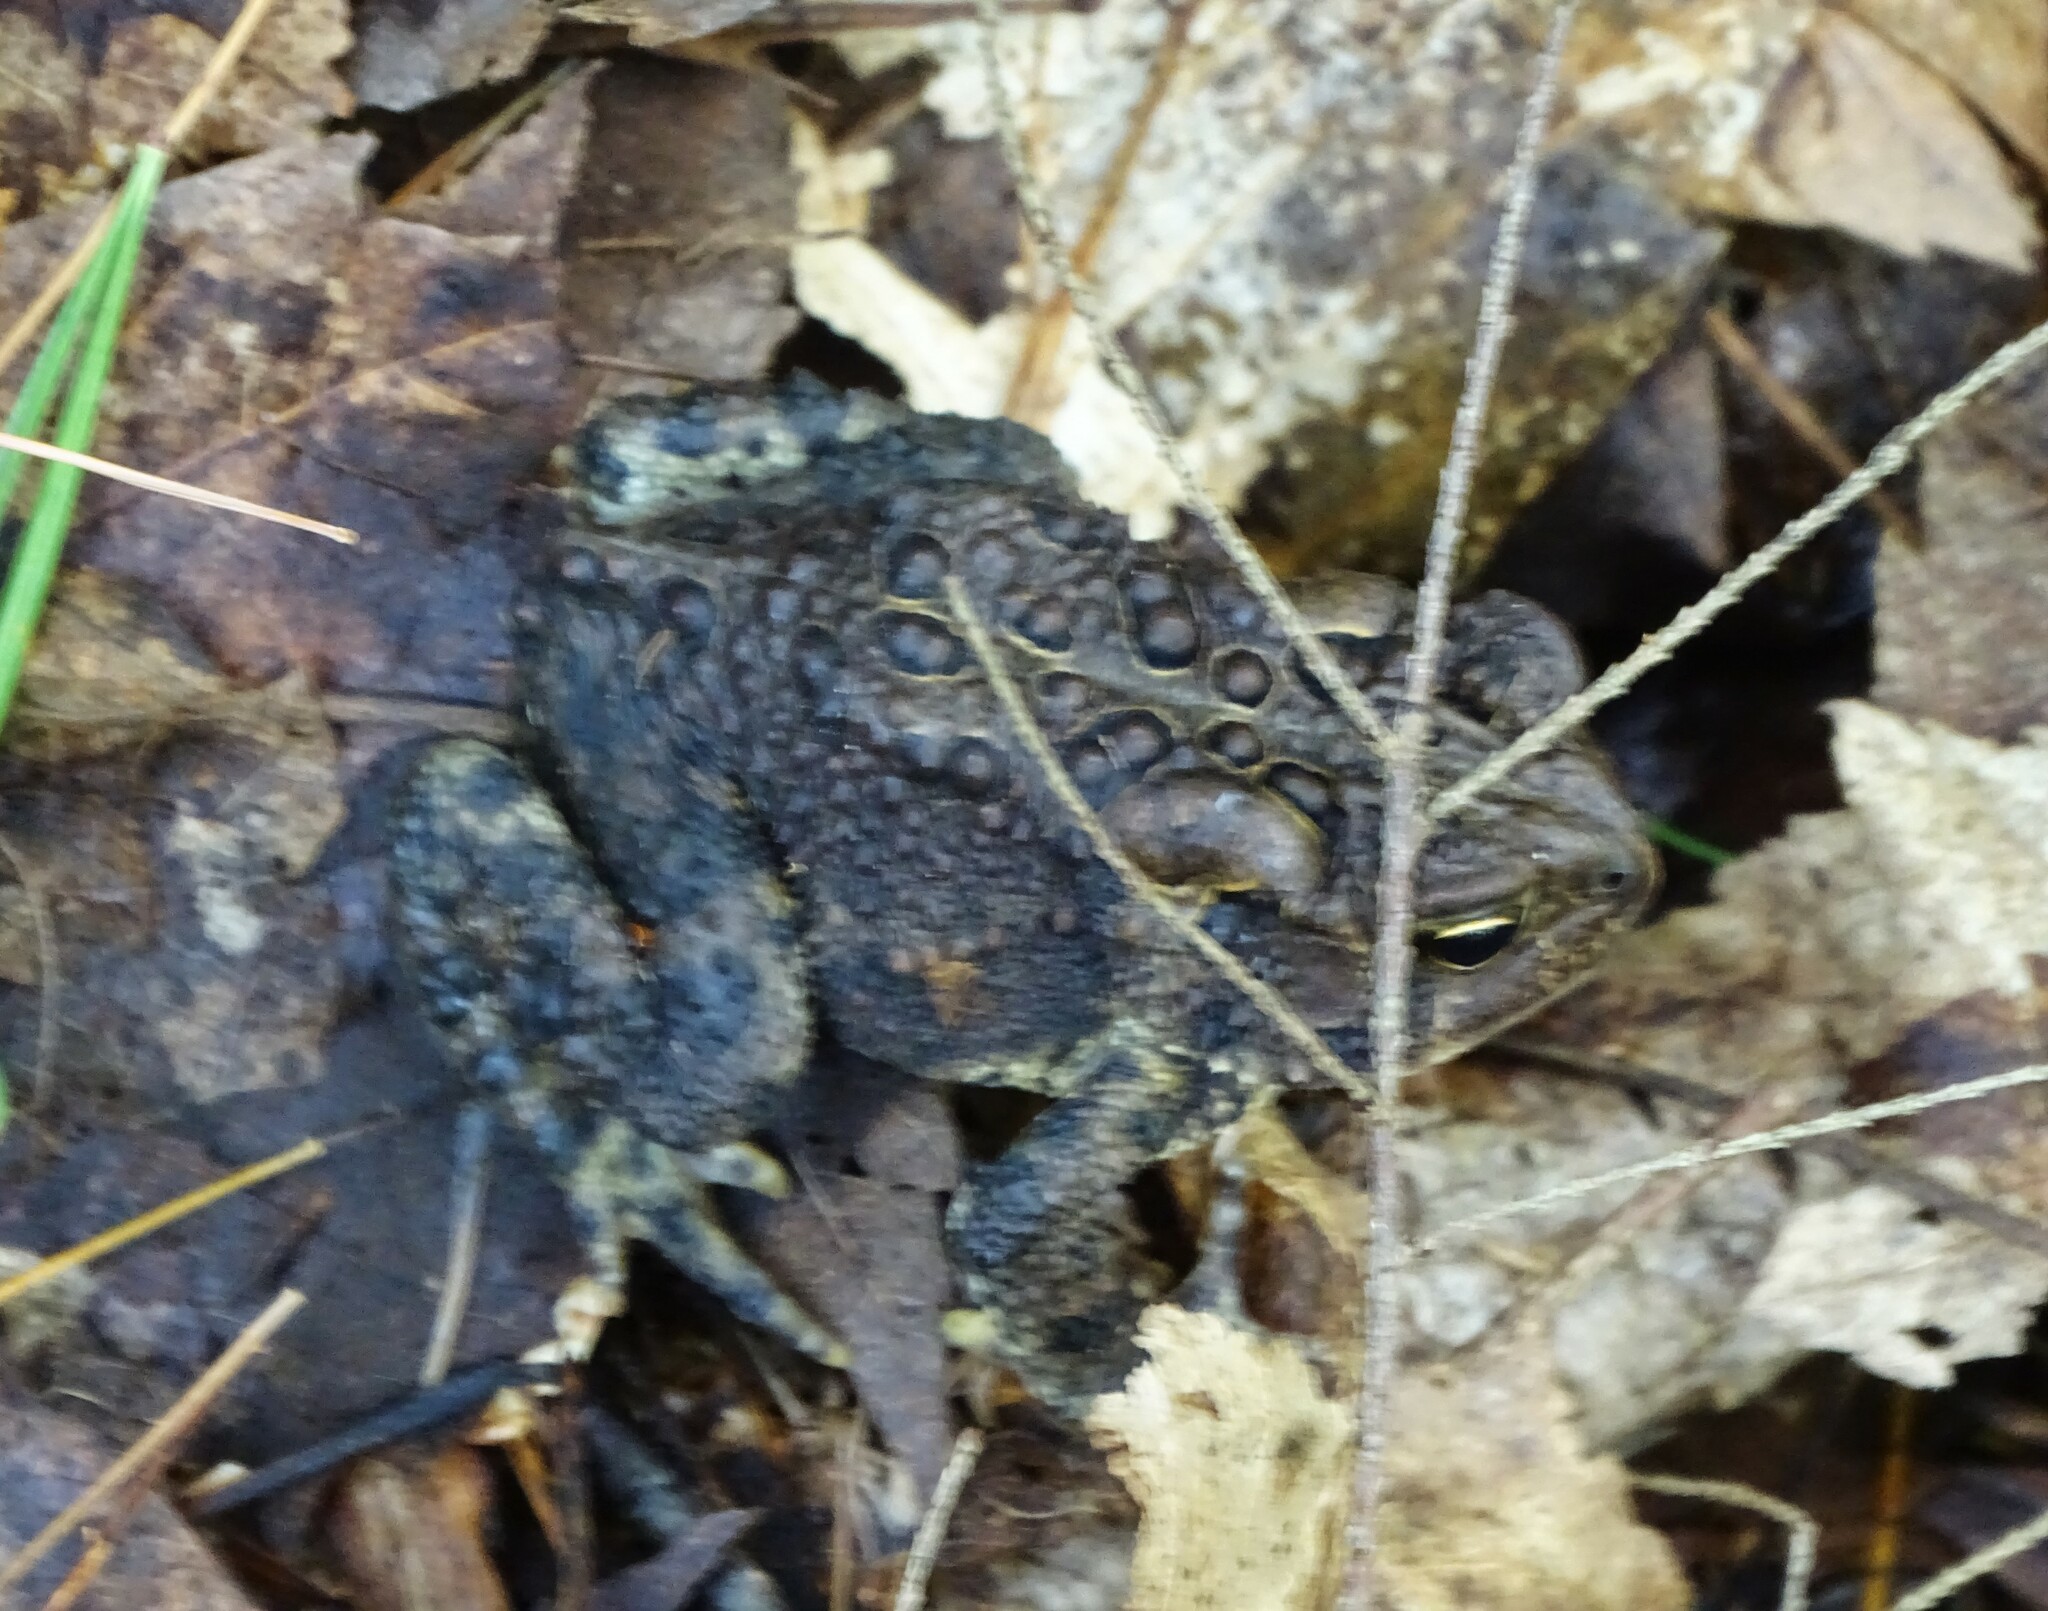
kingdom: Animalia
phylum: Chordata
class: Amphibia
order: Anura
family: Bufonidae
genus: Anaxyrus
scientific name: Anaxyrus americanus
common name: American toad
